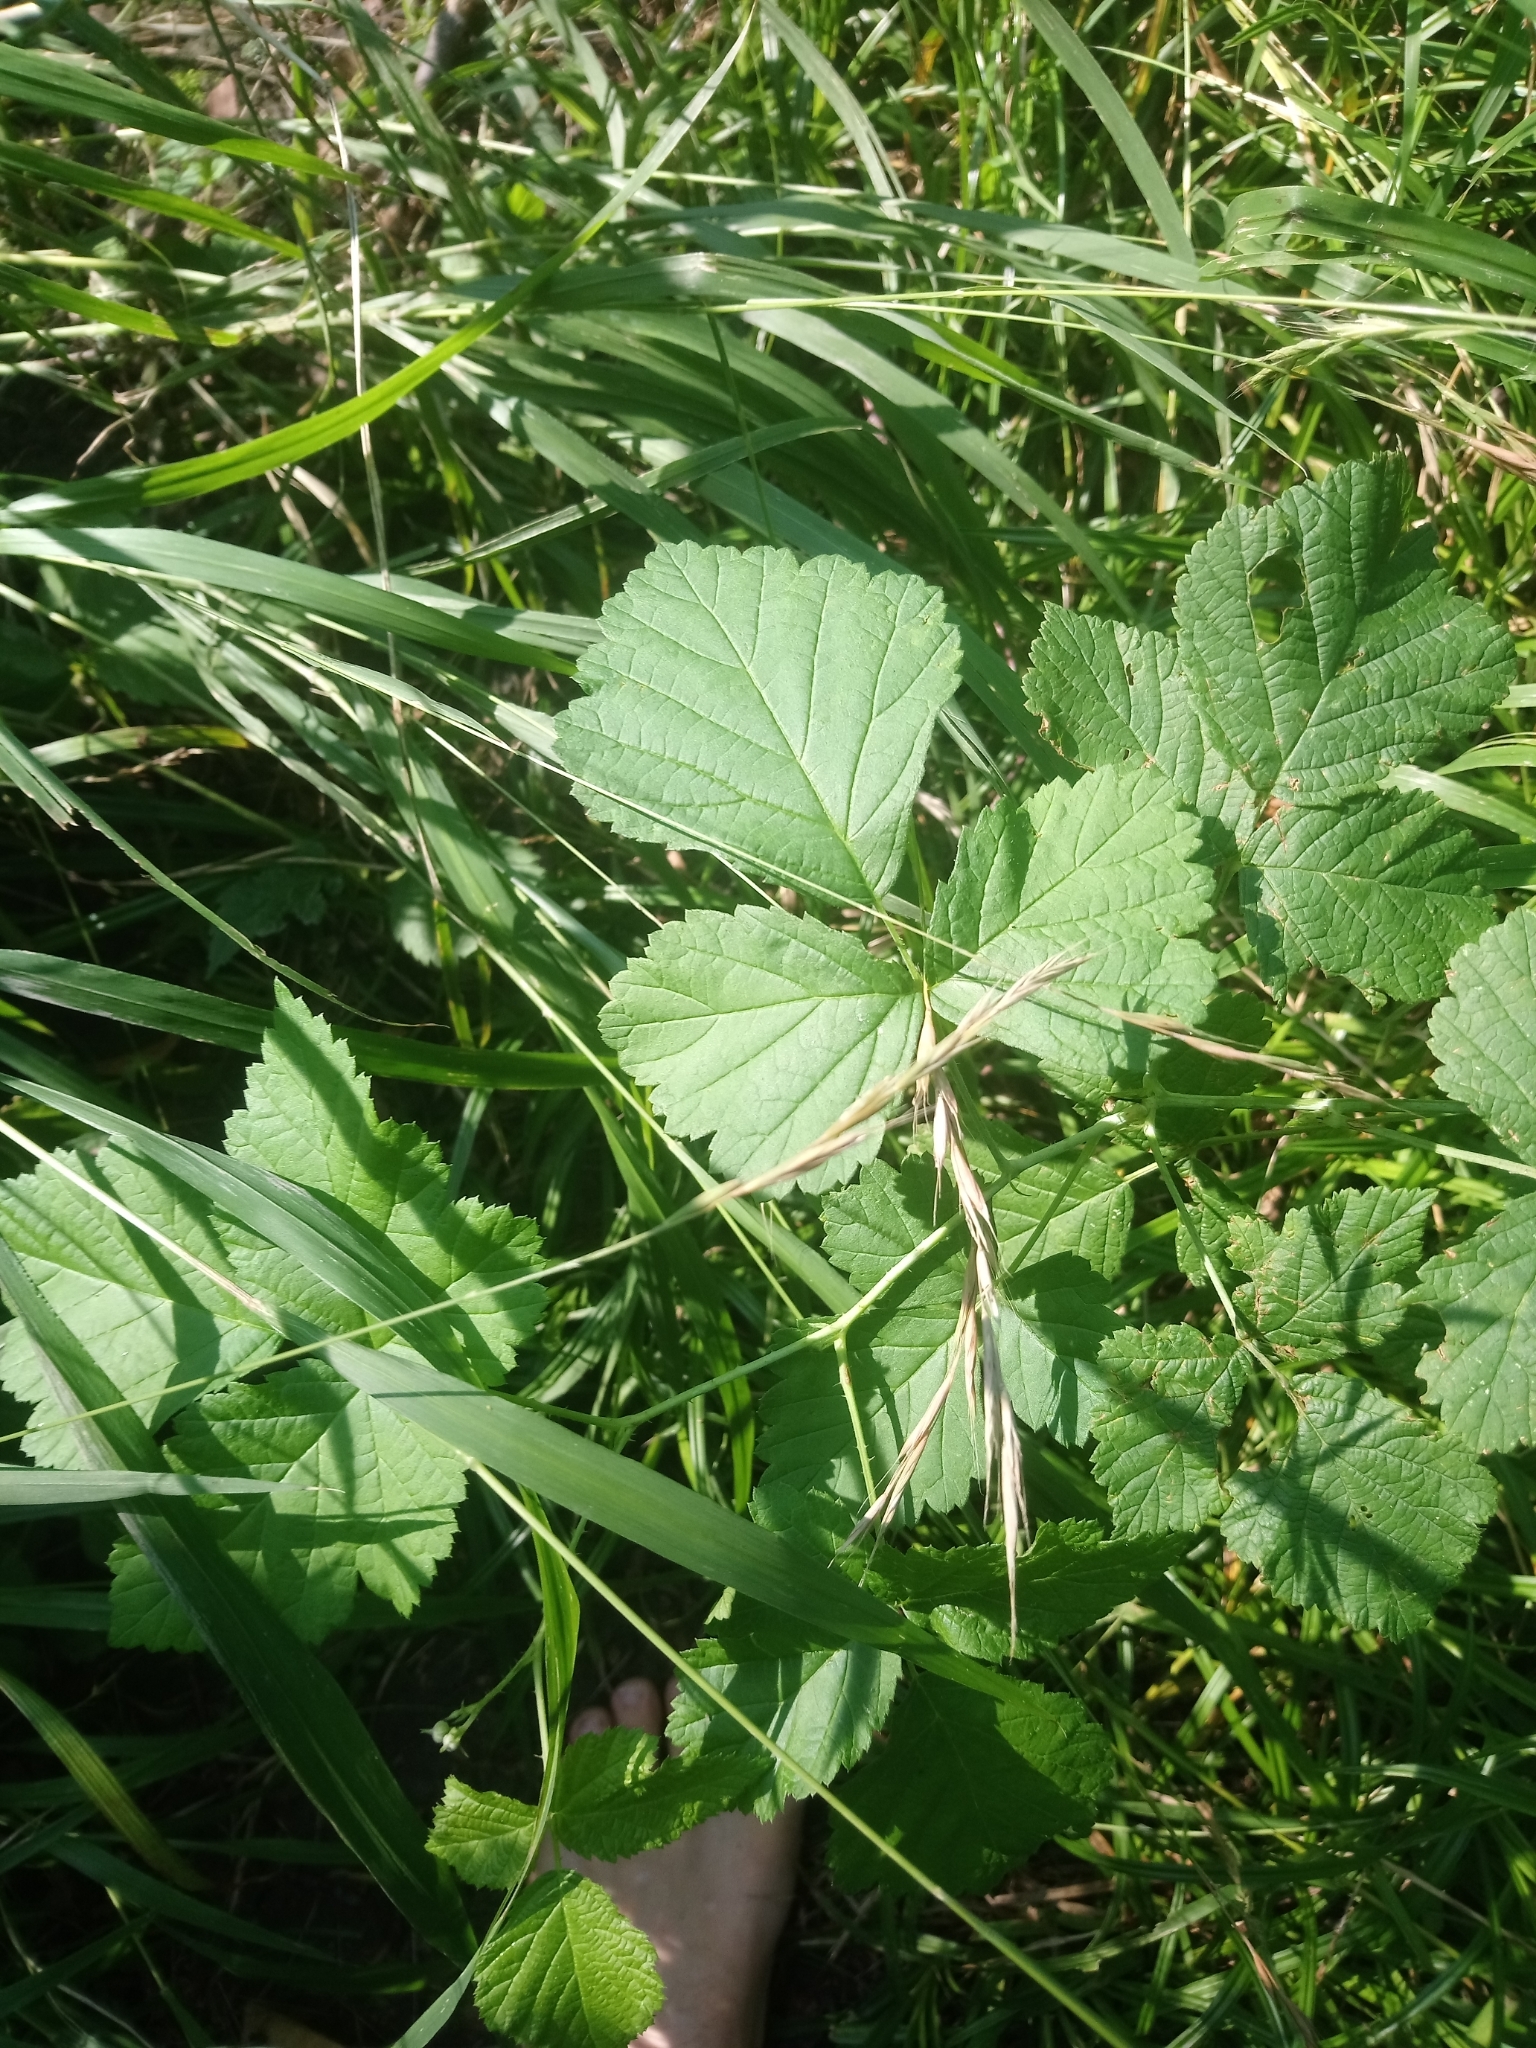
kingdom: Plantae
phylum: Tracheophyta
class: Magnoliopsida
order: Rosales
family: Rosaceae
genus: Rubus
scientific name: Rubus caesius
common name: Dewberry
